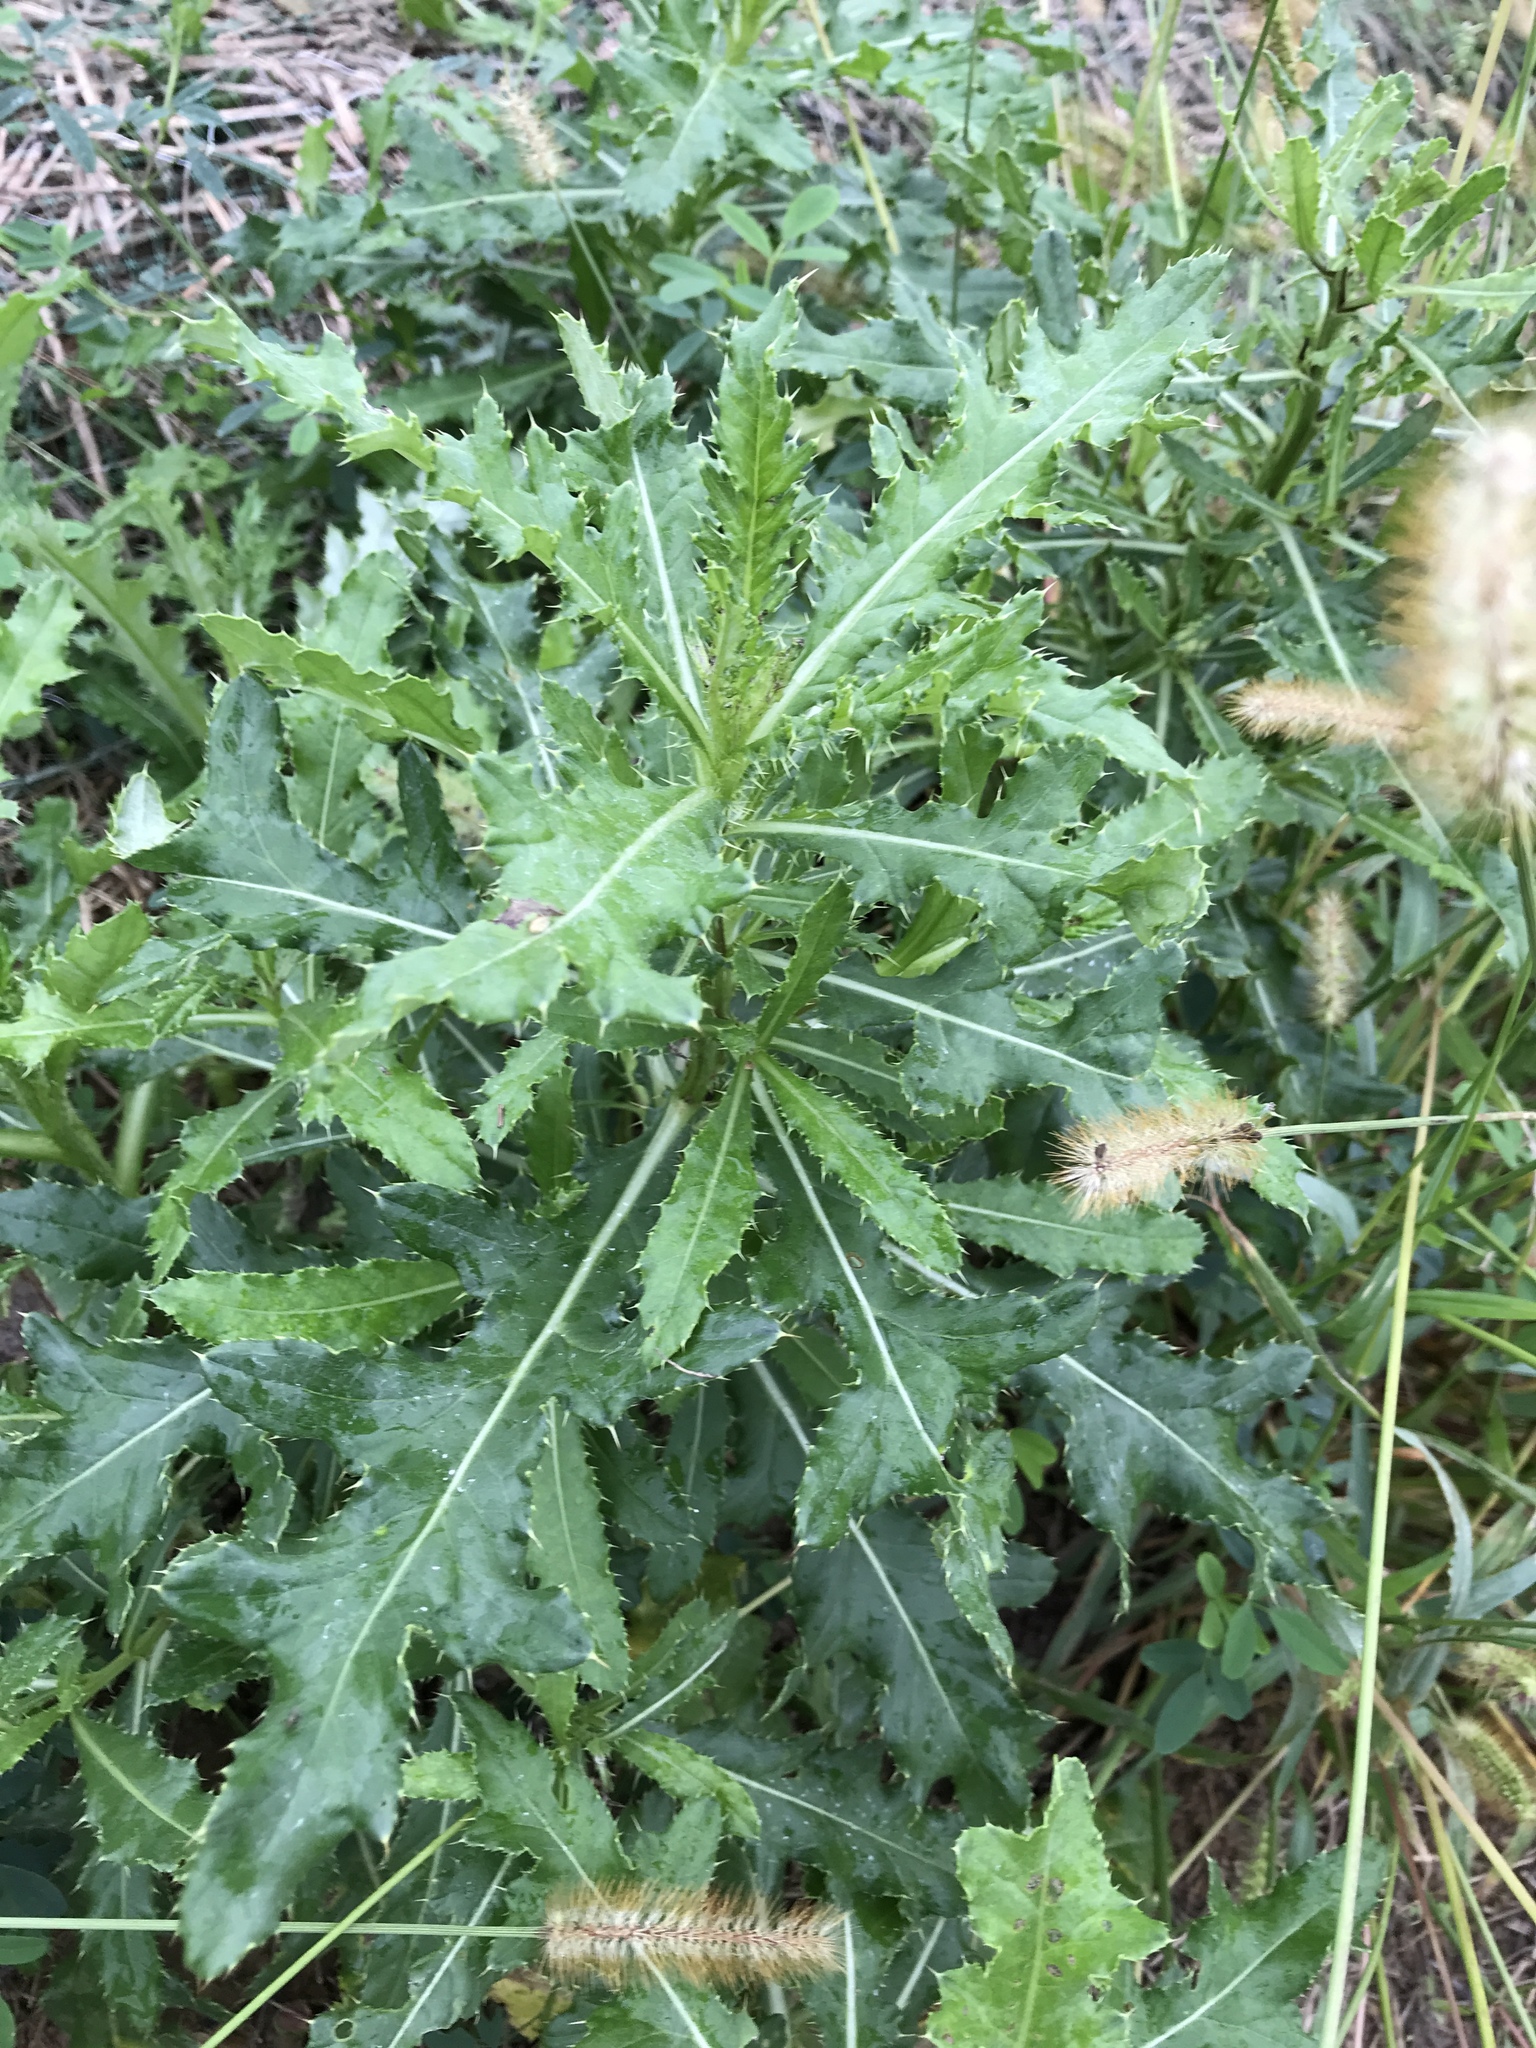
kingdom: Plantae
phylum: Tracheophyta
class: Magnoliopsida
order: Asterales
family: Asteraceae
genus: Cirsium
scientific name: Cirsium arvense
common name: Creeping thistle
